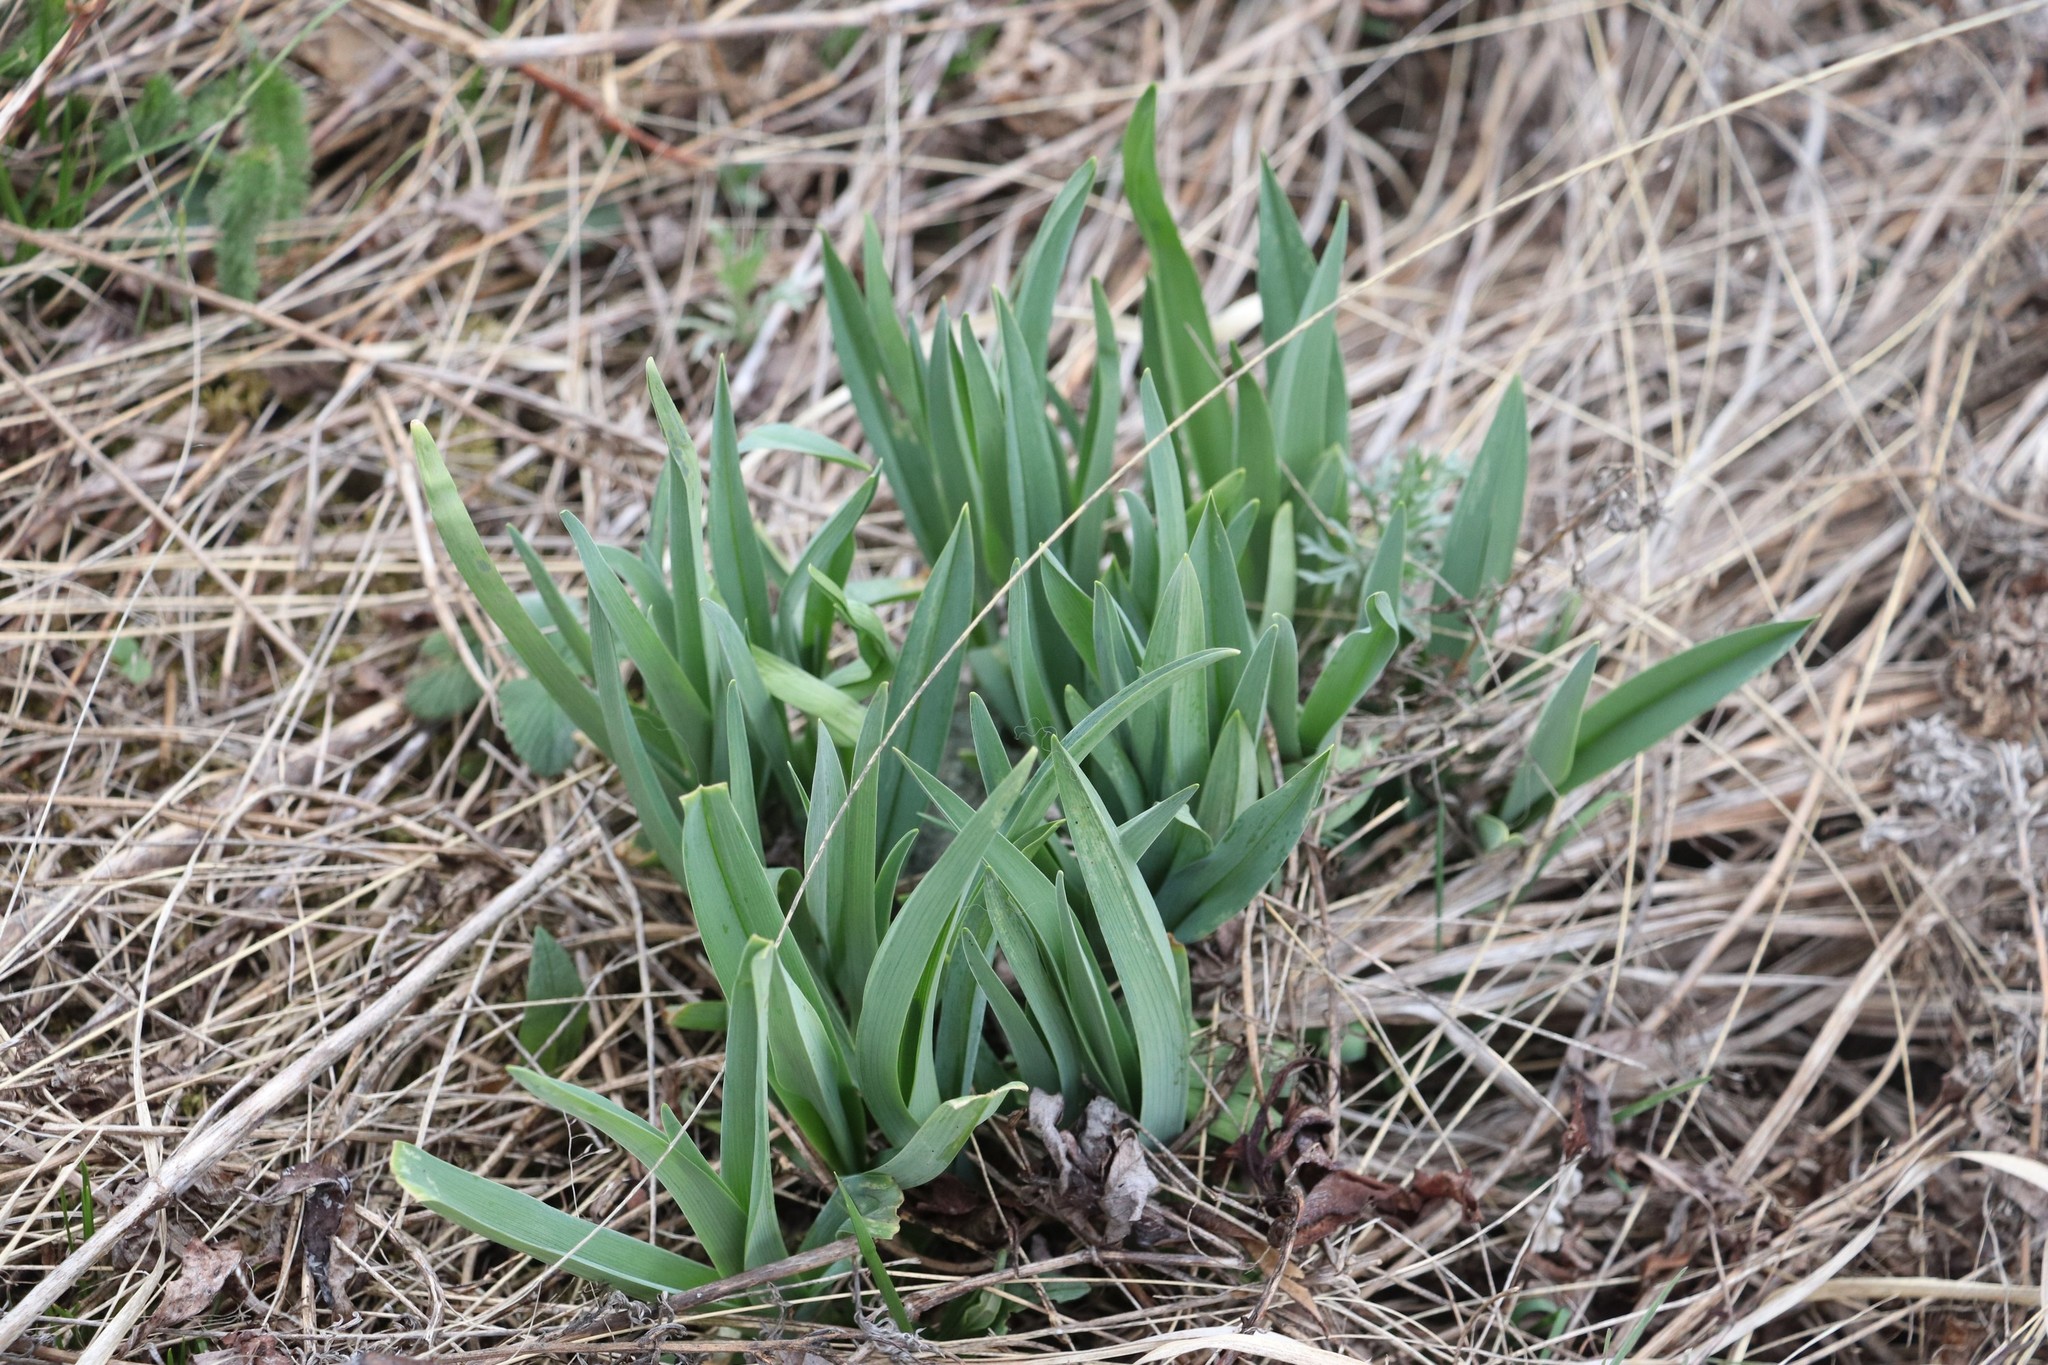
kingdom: Plantae
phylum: Tracheophyta
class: Liliopsida
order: Asparagales
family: Amaryllidaceae
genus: Allium
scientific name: Allium nutans
